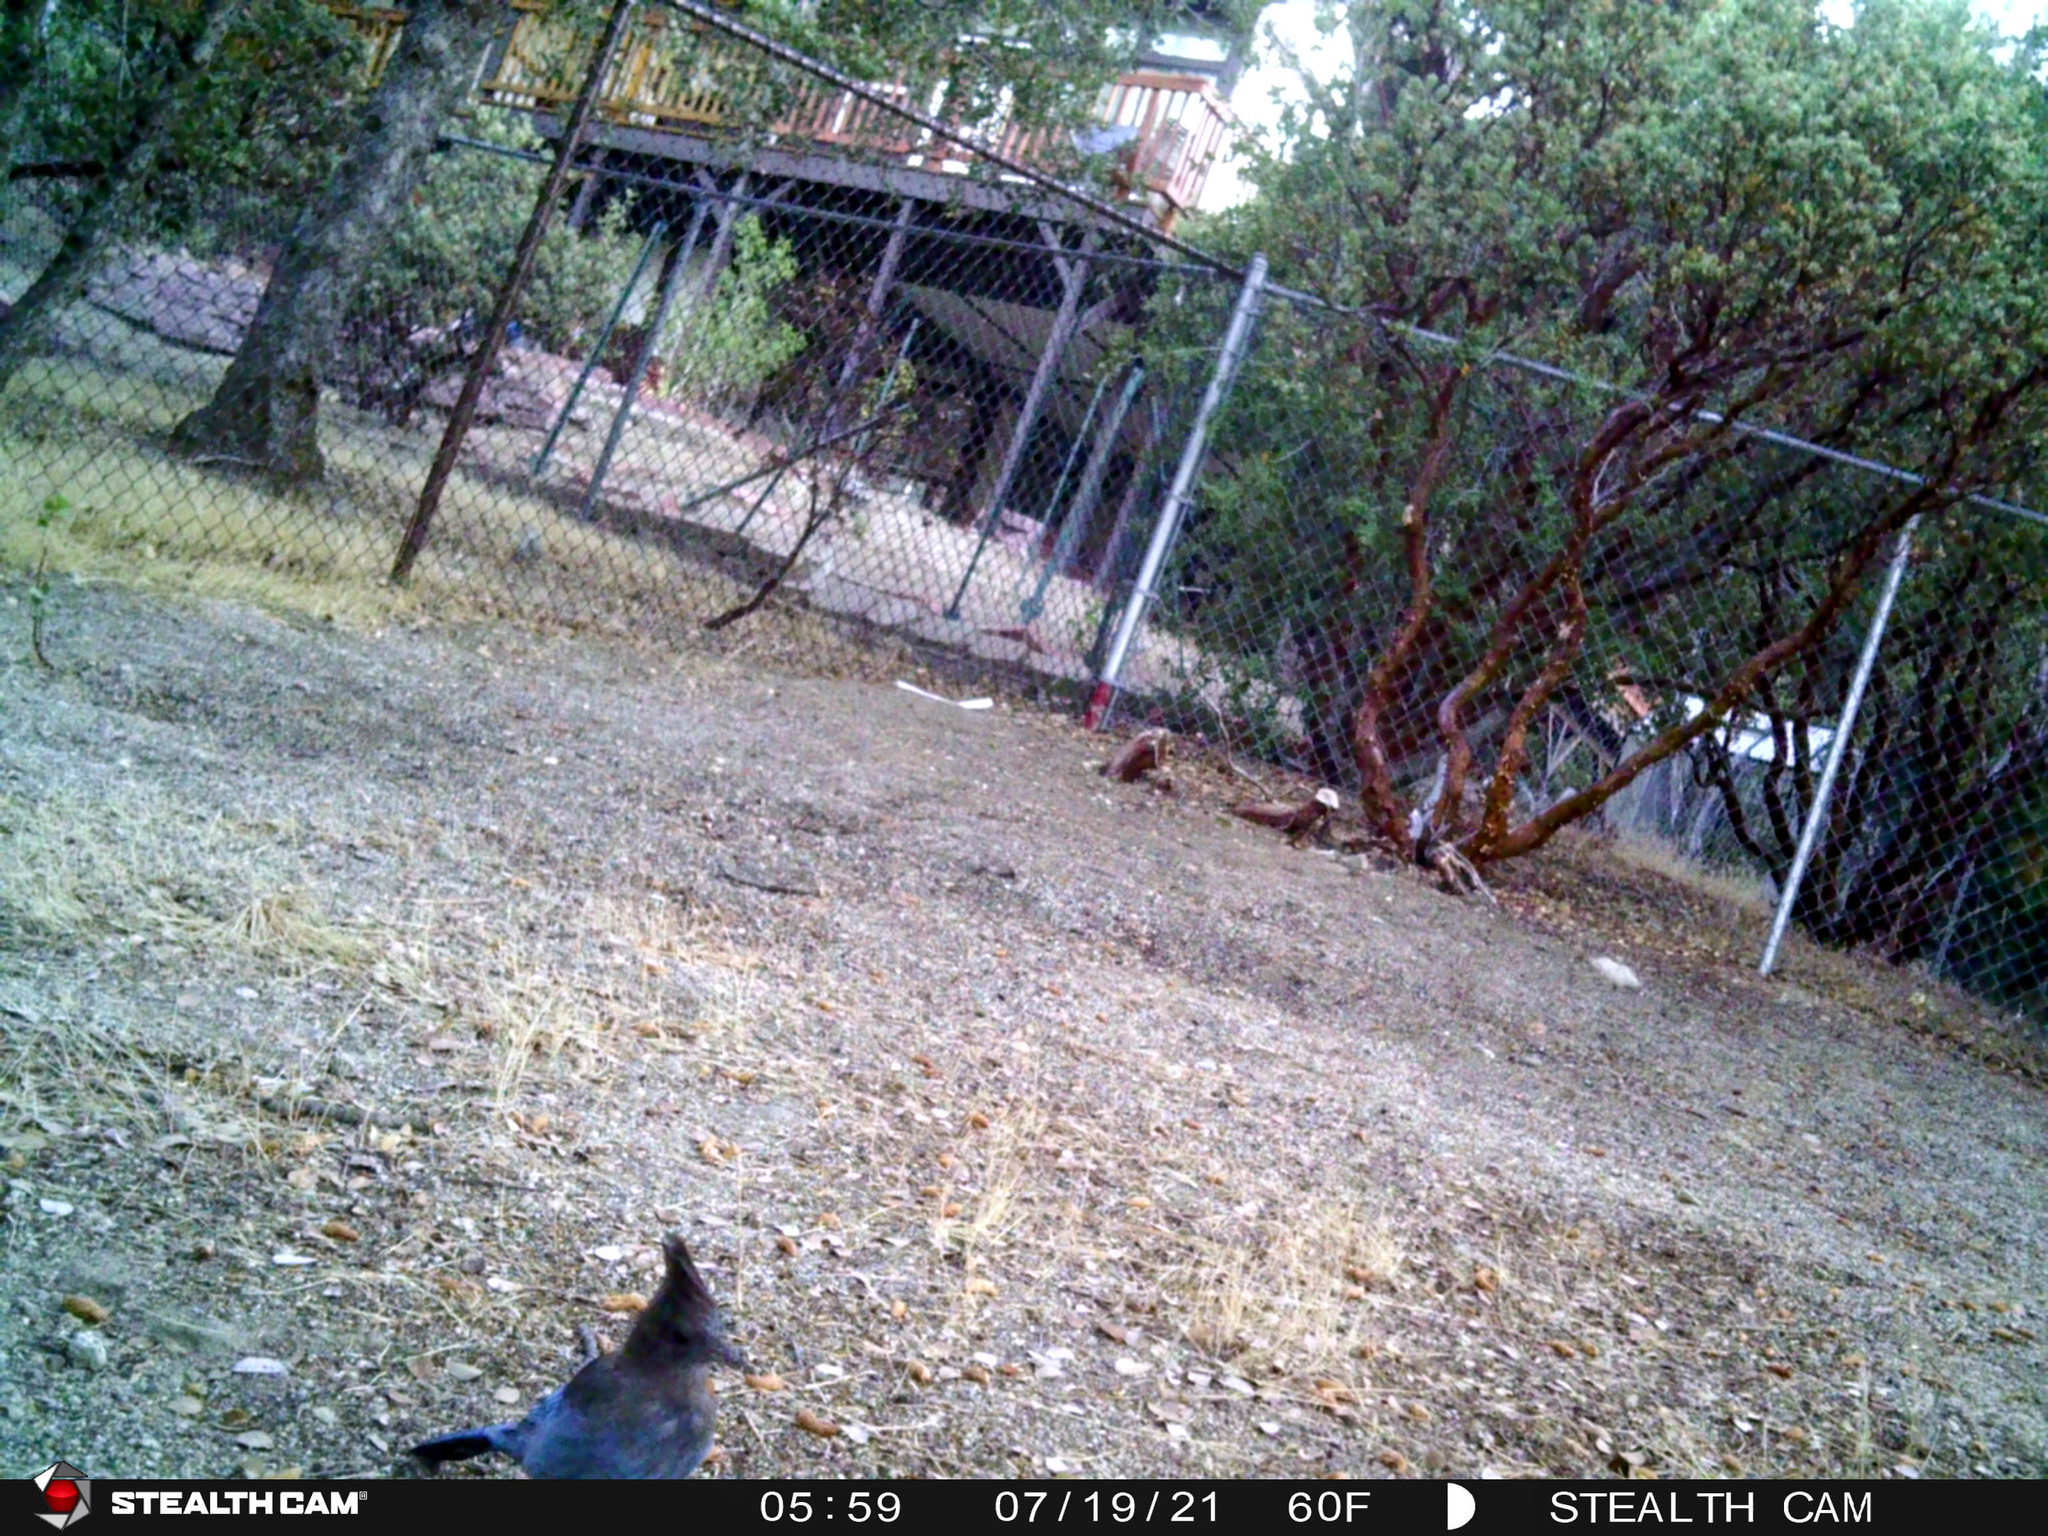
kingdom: Animalia
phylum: Chordata
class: Aves
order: Passeriformes
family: Corvidae
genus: Cyanocitta
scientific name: Cyanocitta stelleri
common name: Steller's jay
